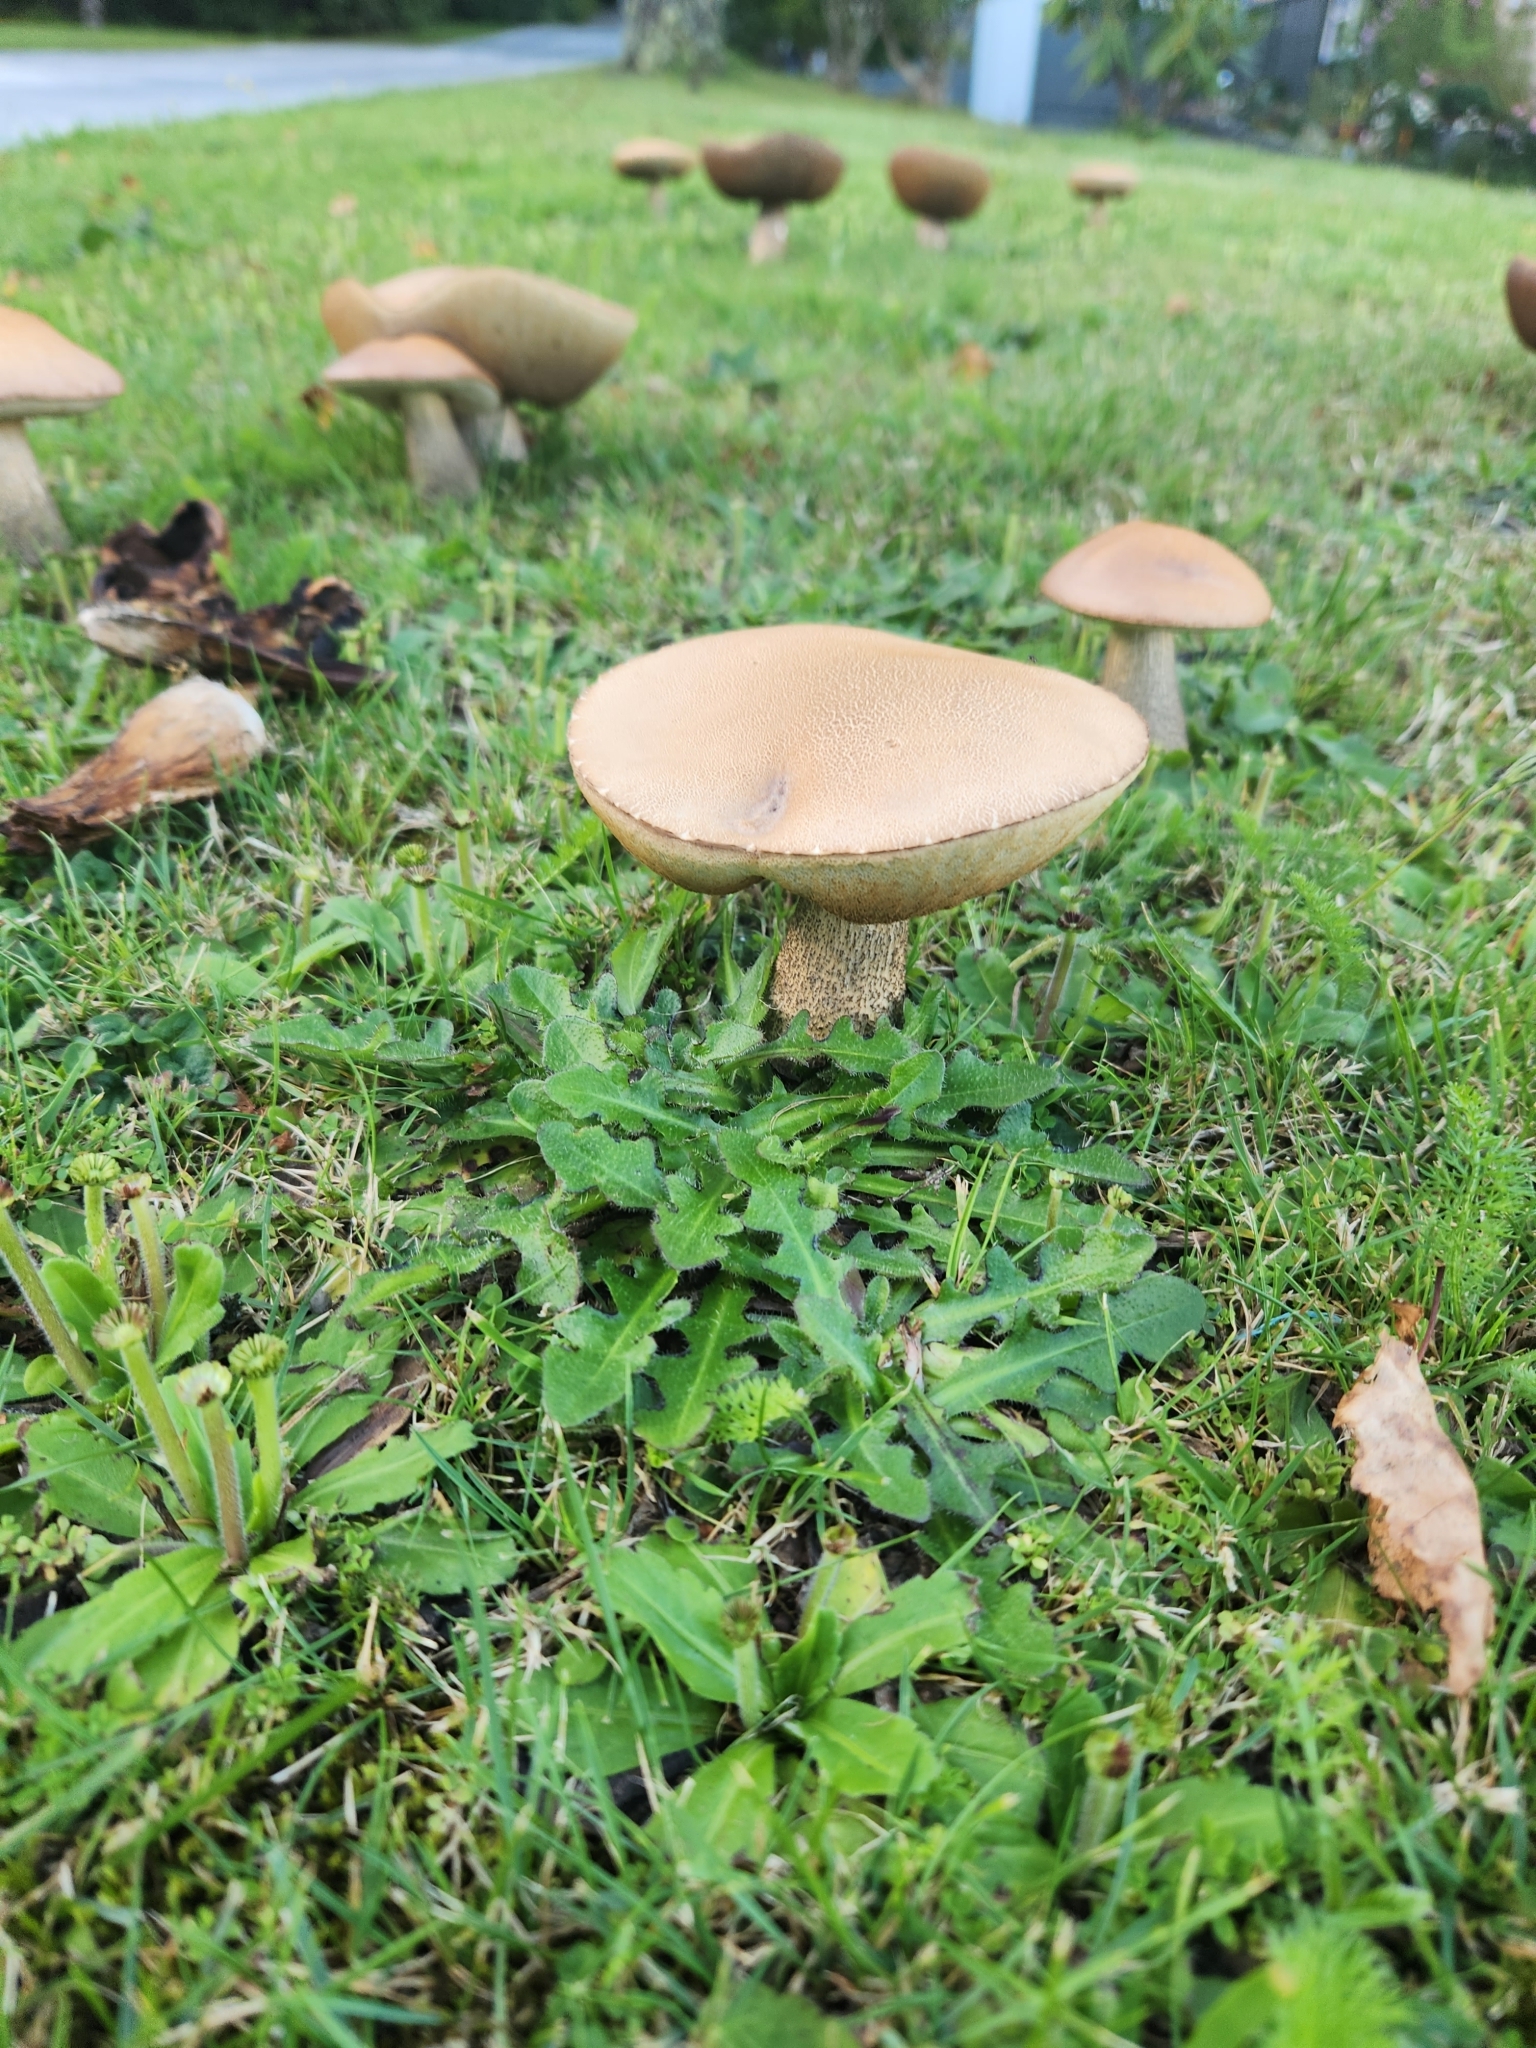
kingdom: Fungi
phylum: Basidiomycota
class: Agaricomycetes
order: Boletales
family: Boletaceae
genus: Leccinum
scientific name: Leccinum scabrum
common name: Blushing bolete
